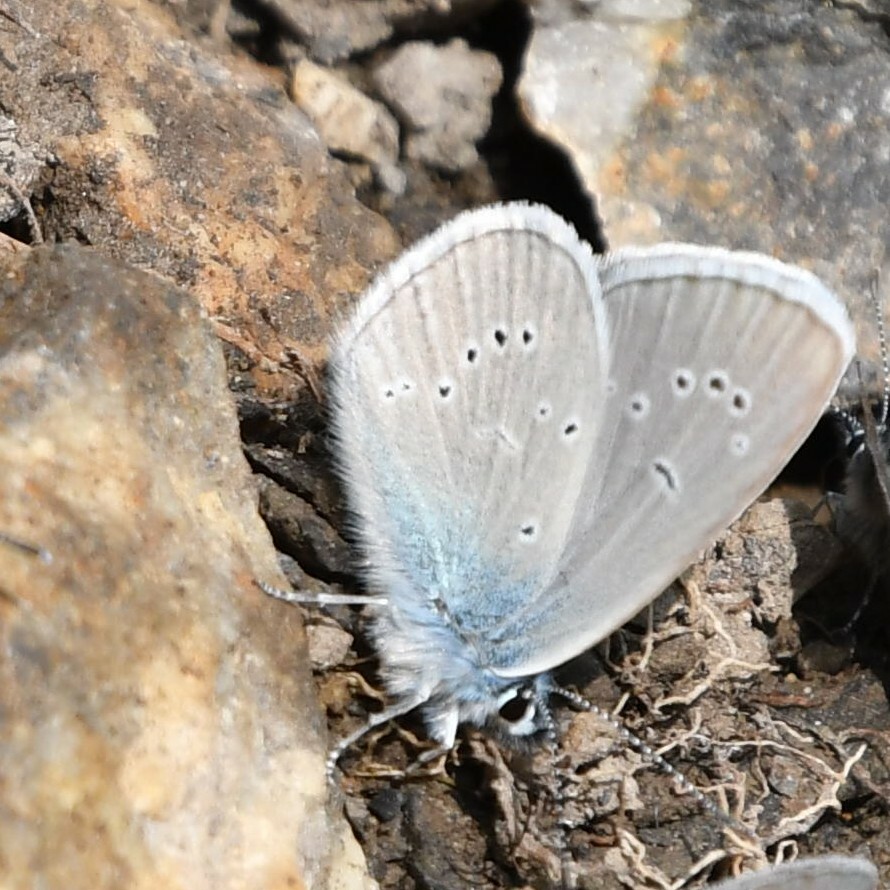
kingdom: Animalia
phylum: Arthropoda
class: Insecta
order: Lepidoptera
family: Lycaenidae
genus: Cyaniris
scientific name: Cyaniris semiargus
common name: Mazarine blue
